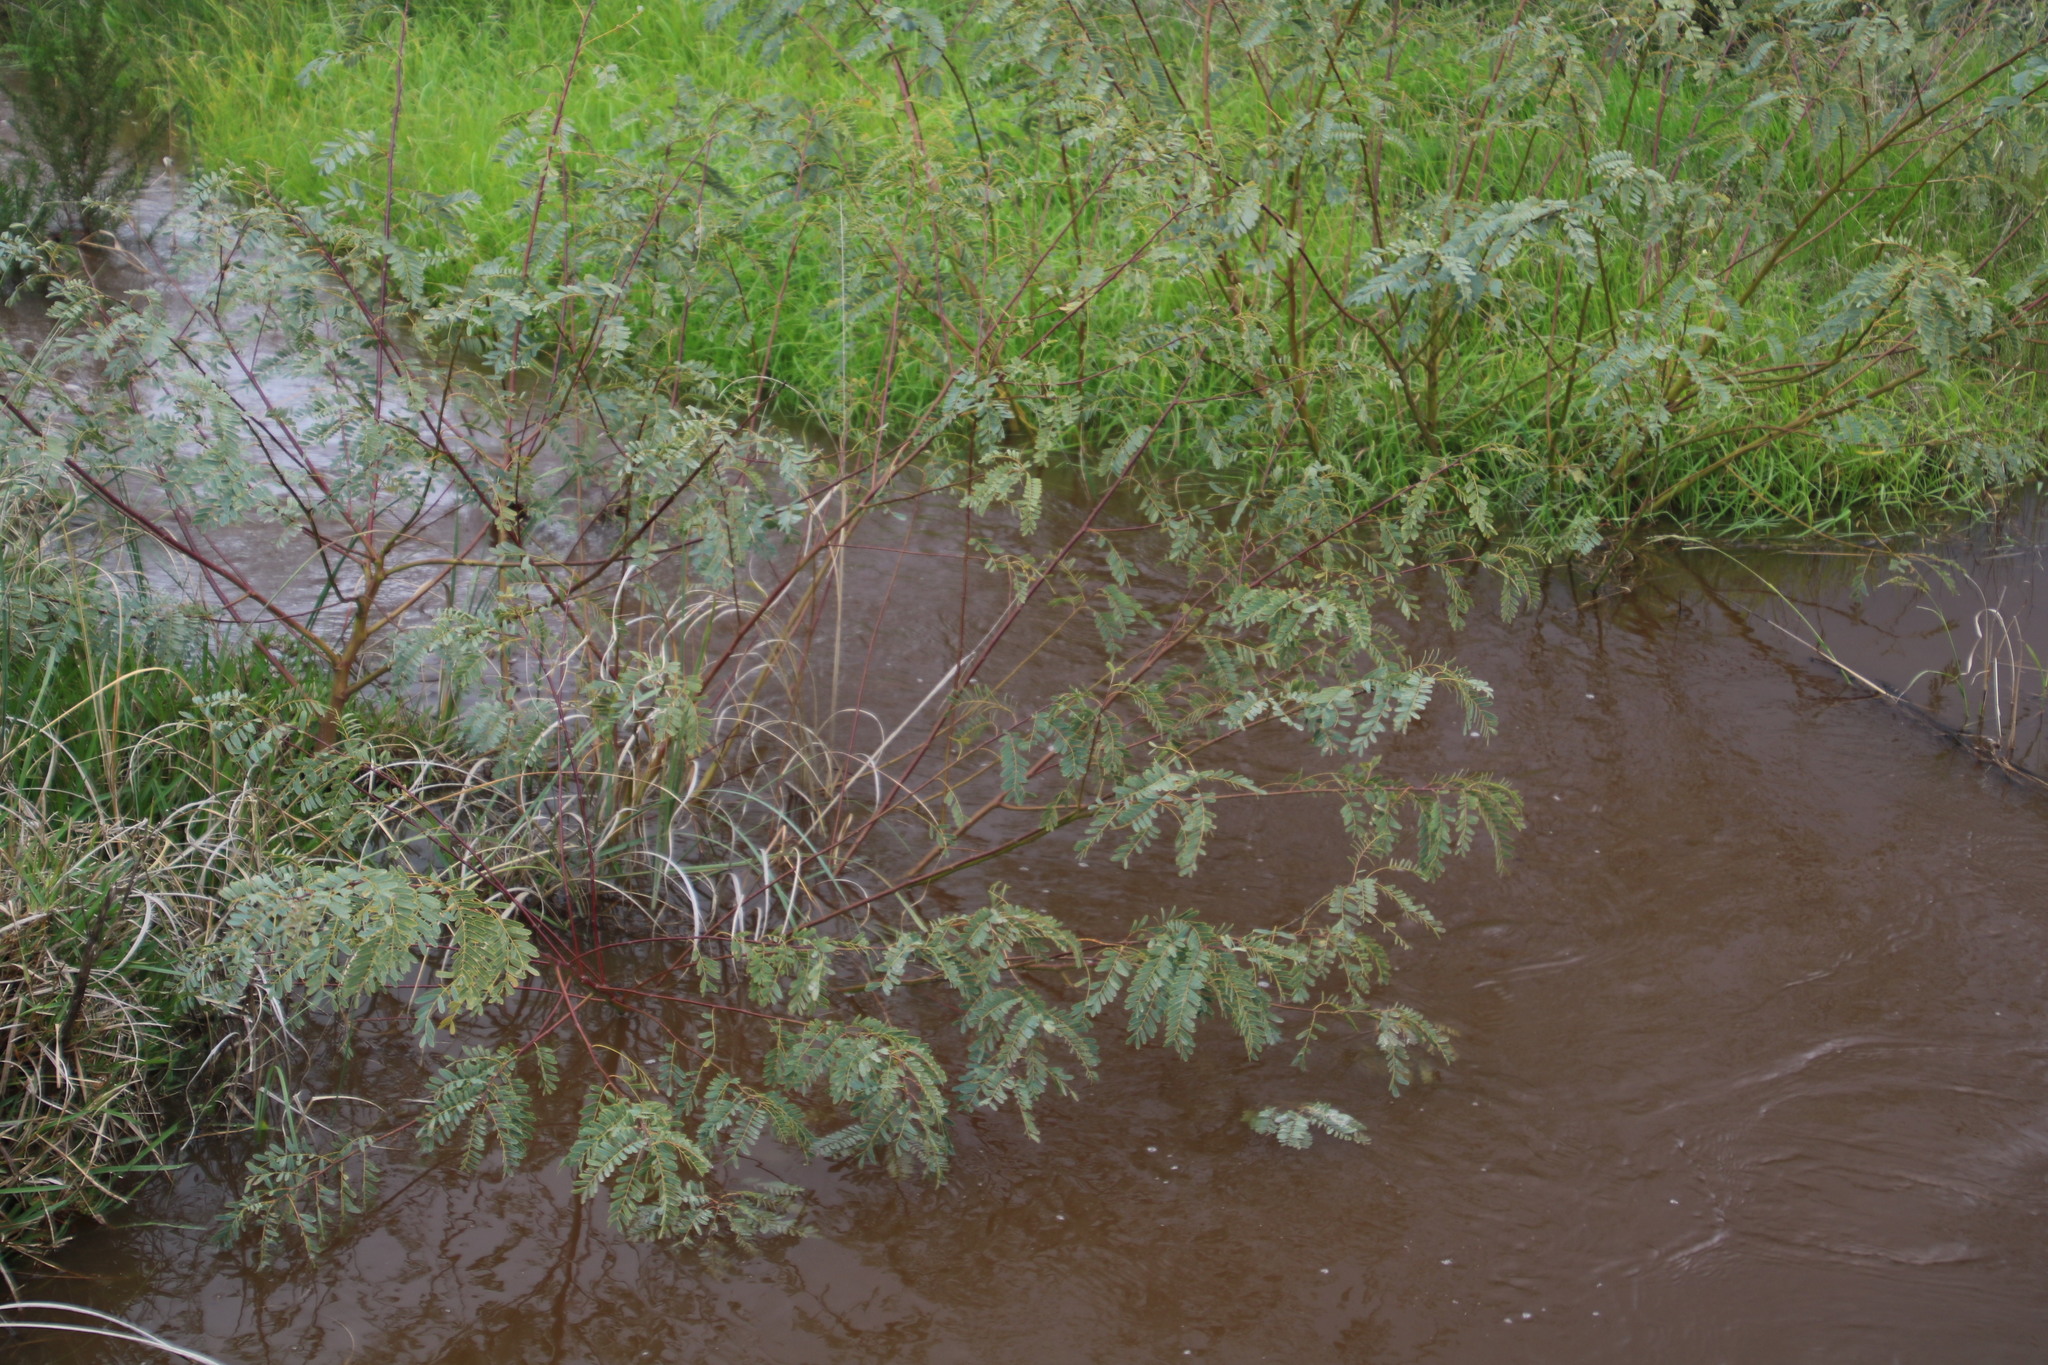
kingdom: Plantae
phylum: Tracheophyta
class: Magnoliopsida
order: Fabales
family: Fabaceae
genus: Sesbania
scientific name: Sesbania punicea
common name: Rattlebox
